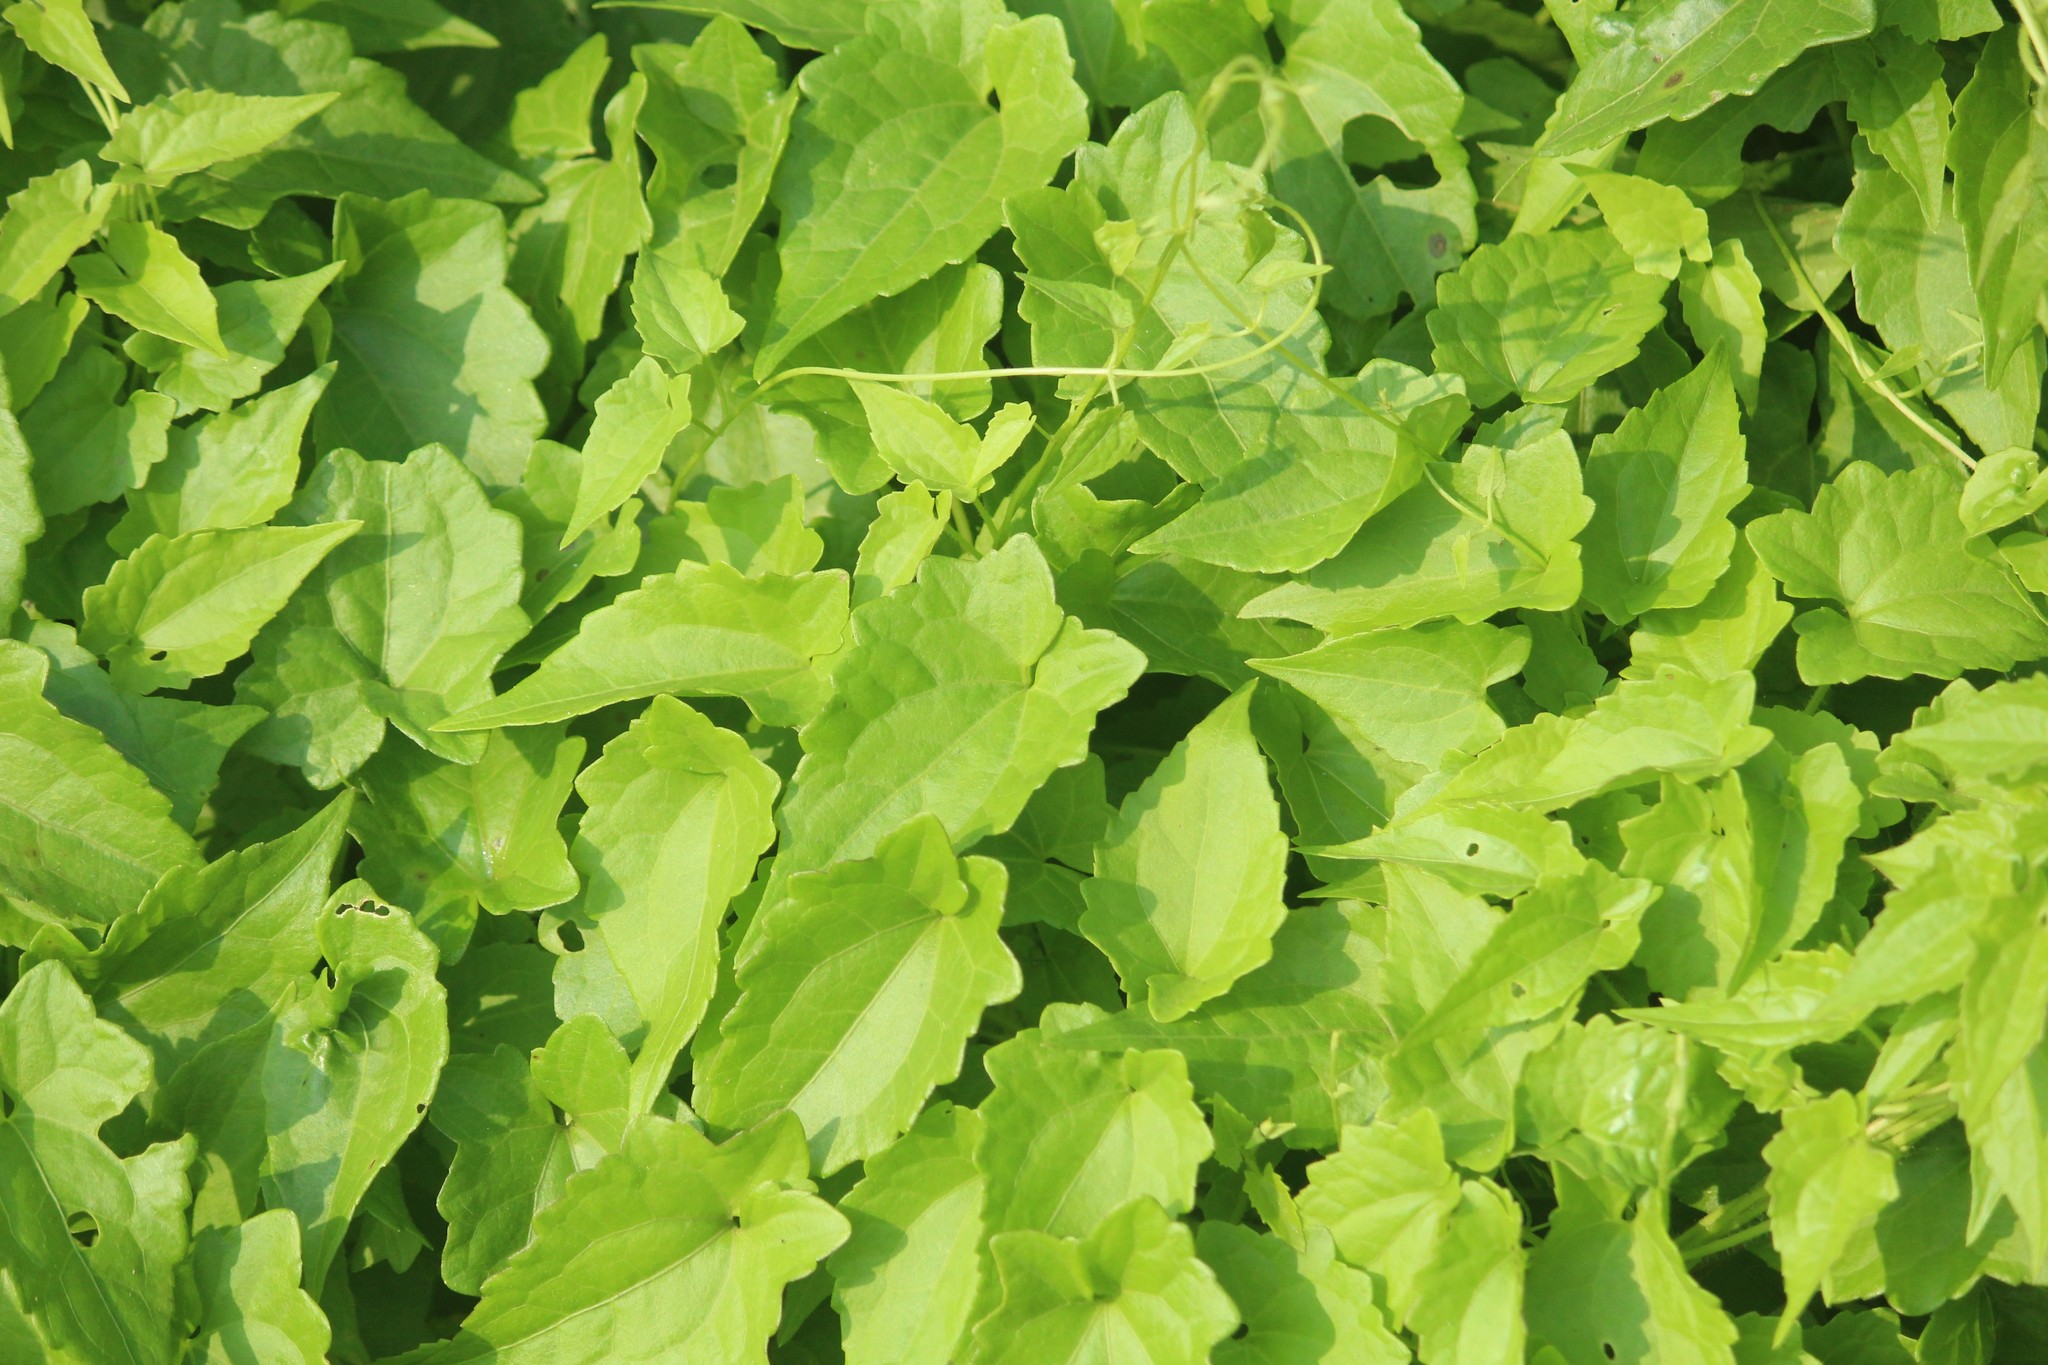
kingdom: Plantae
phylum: Tracheophyta
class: Magnoliopsida
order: Asterales
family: Asteraceae
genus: Mikania
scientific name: Mikania micrantha
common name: Mile-a-minute
